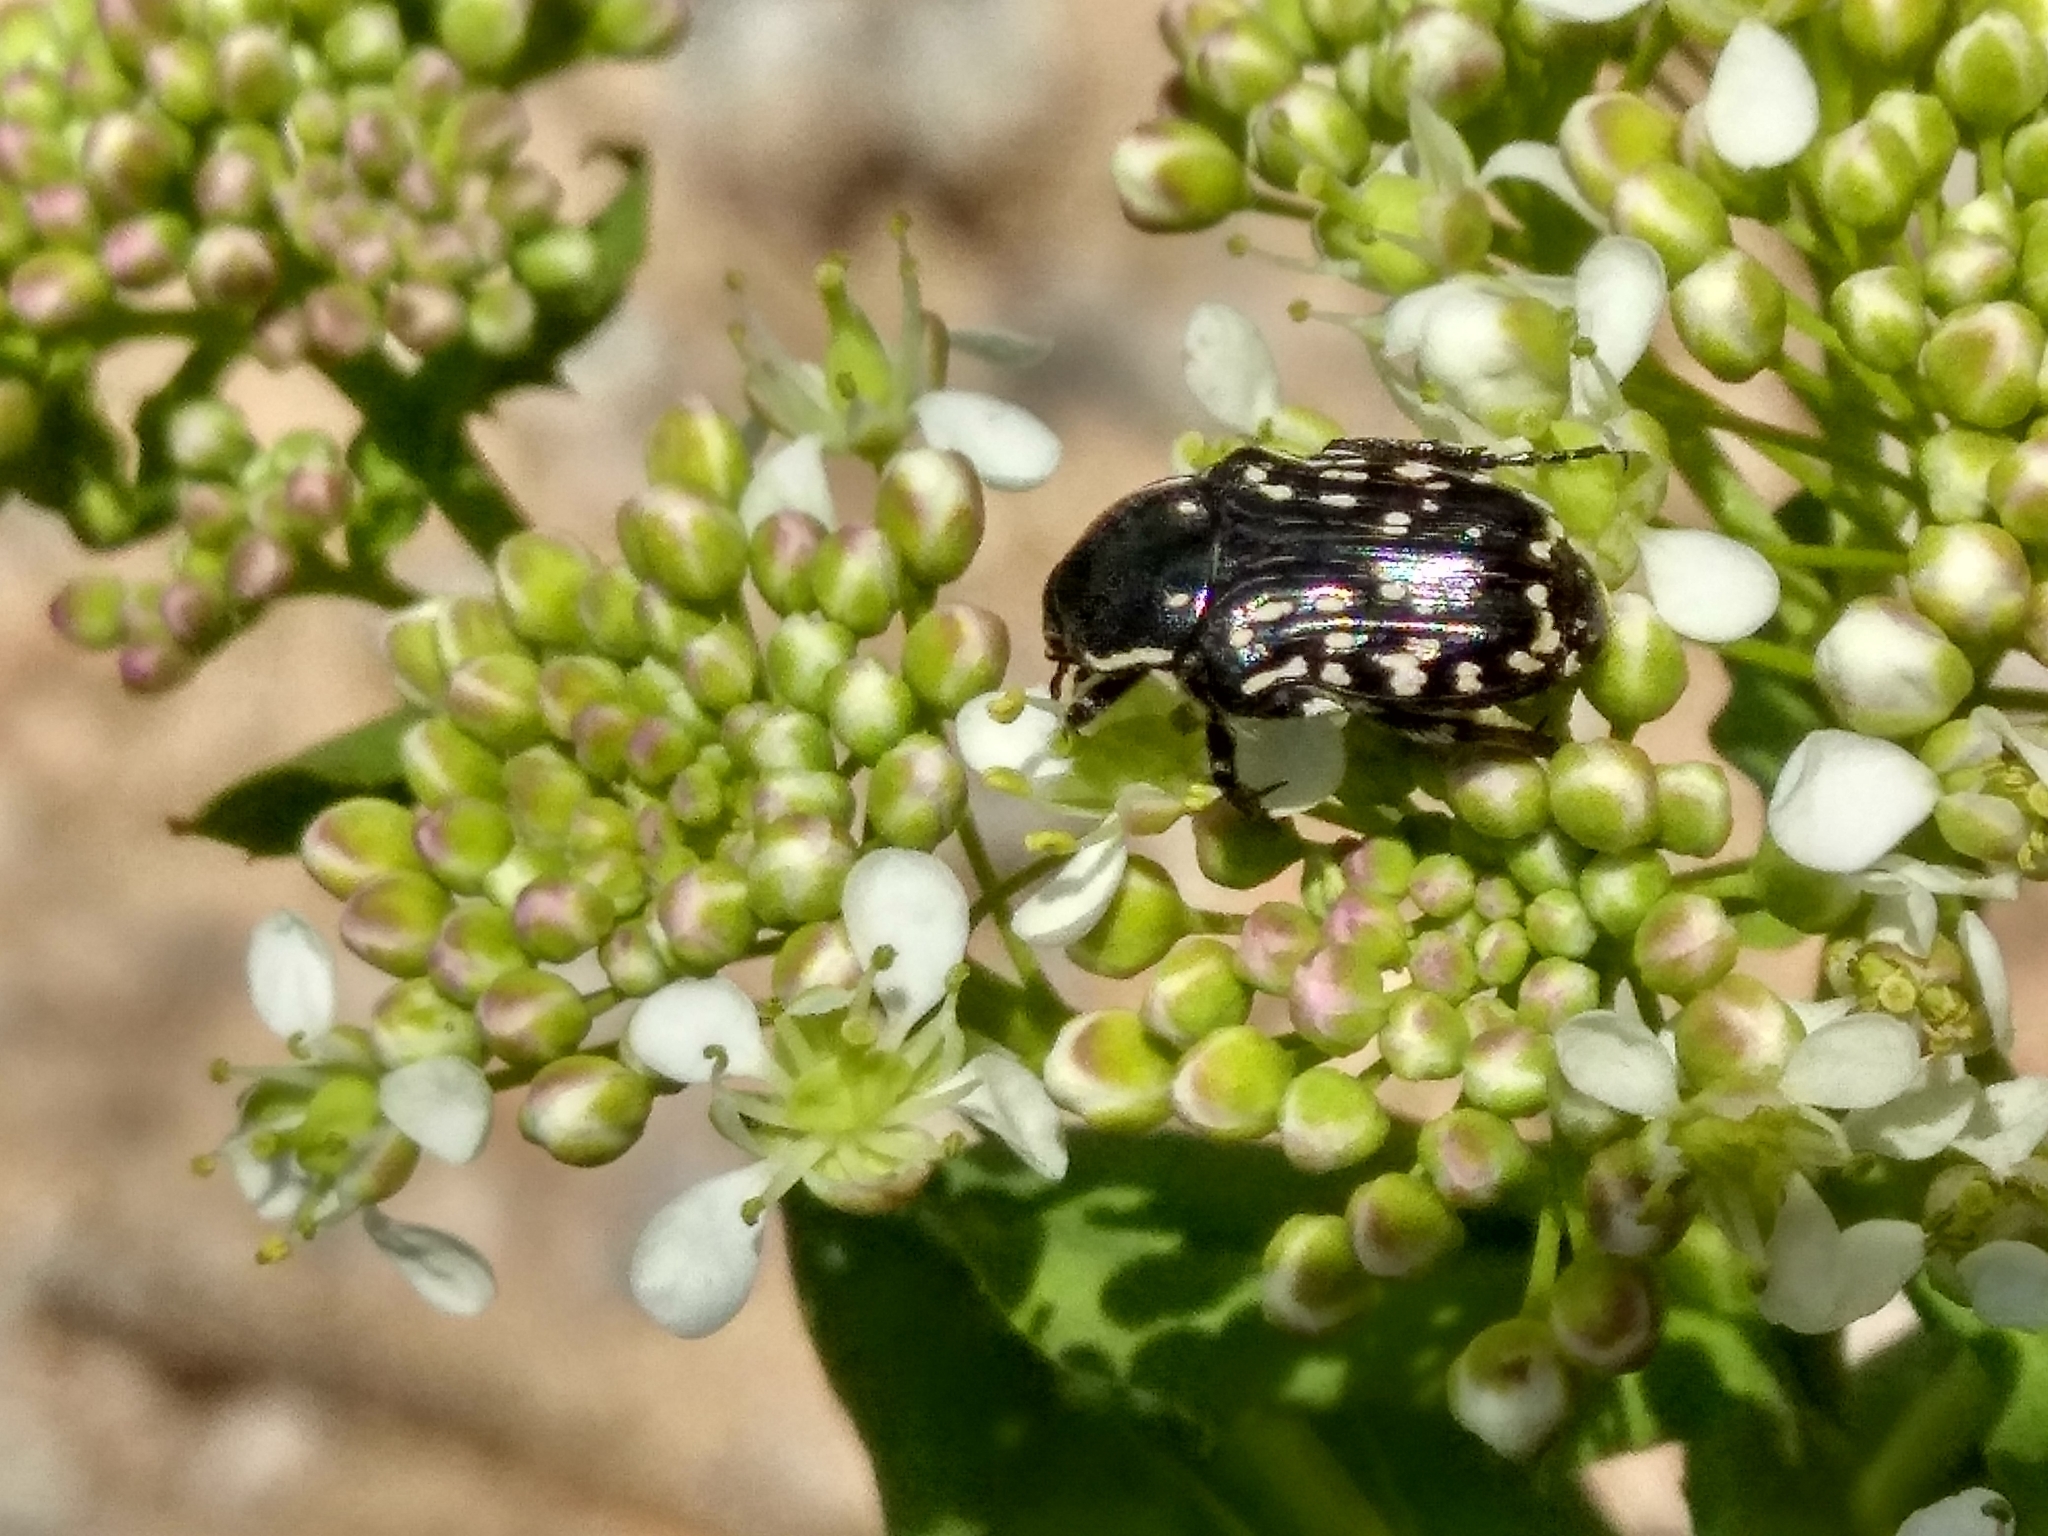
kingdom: Animalia
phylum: Arthropoda
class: Insecta
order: Coleoptera
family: Scarabaeidae
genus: Oxythyrea
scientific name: Oxythyrea cinctella
